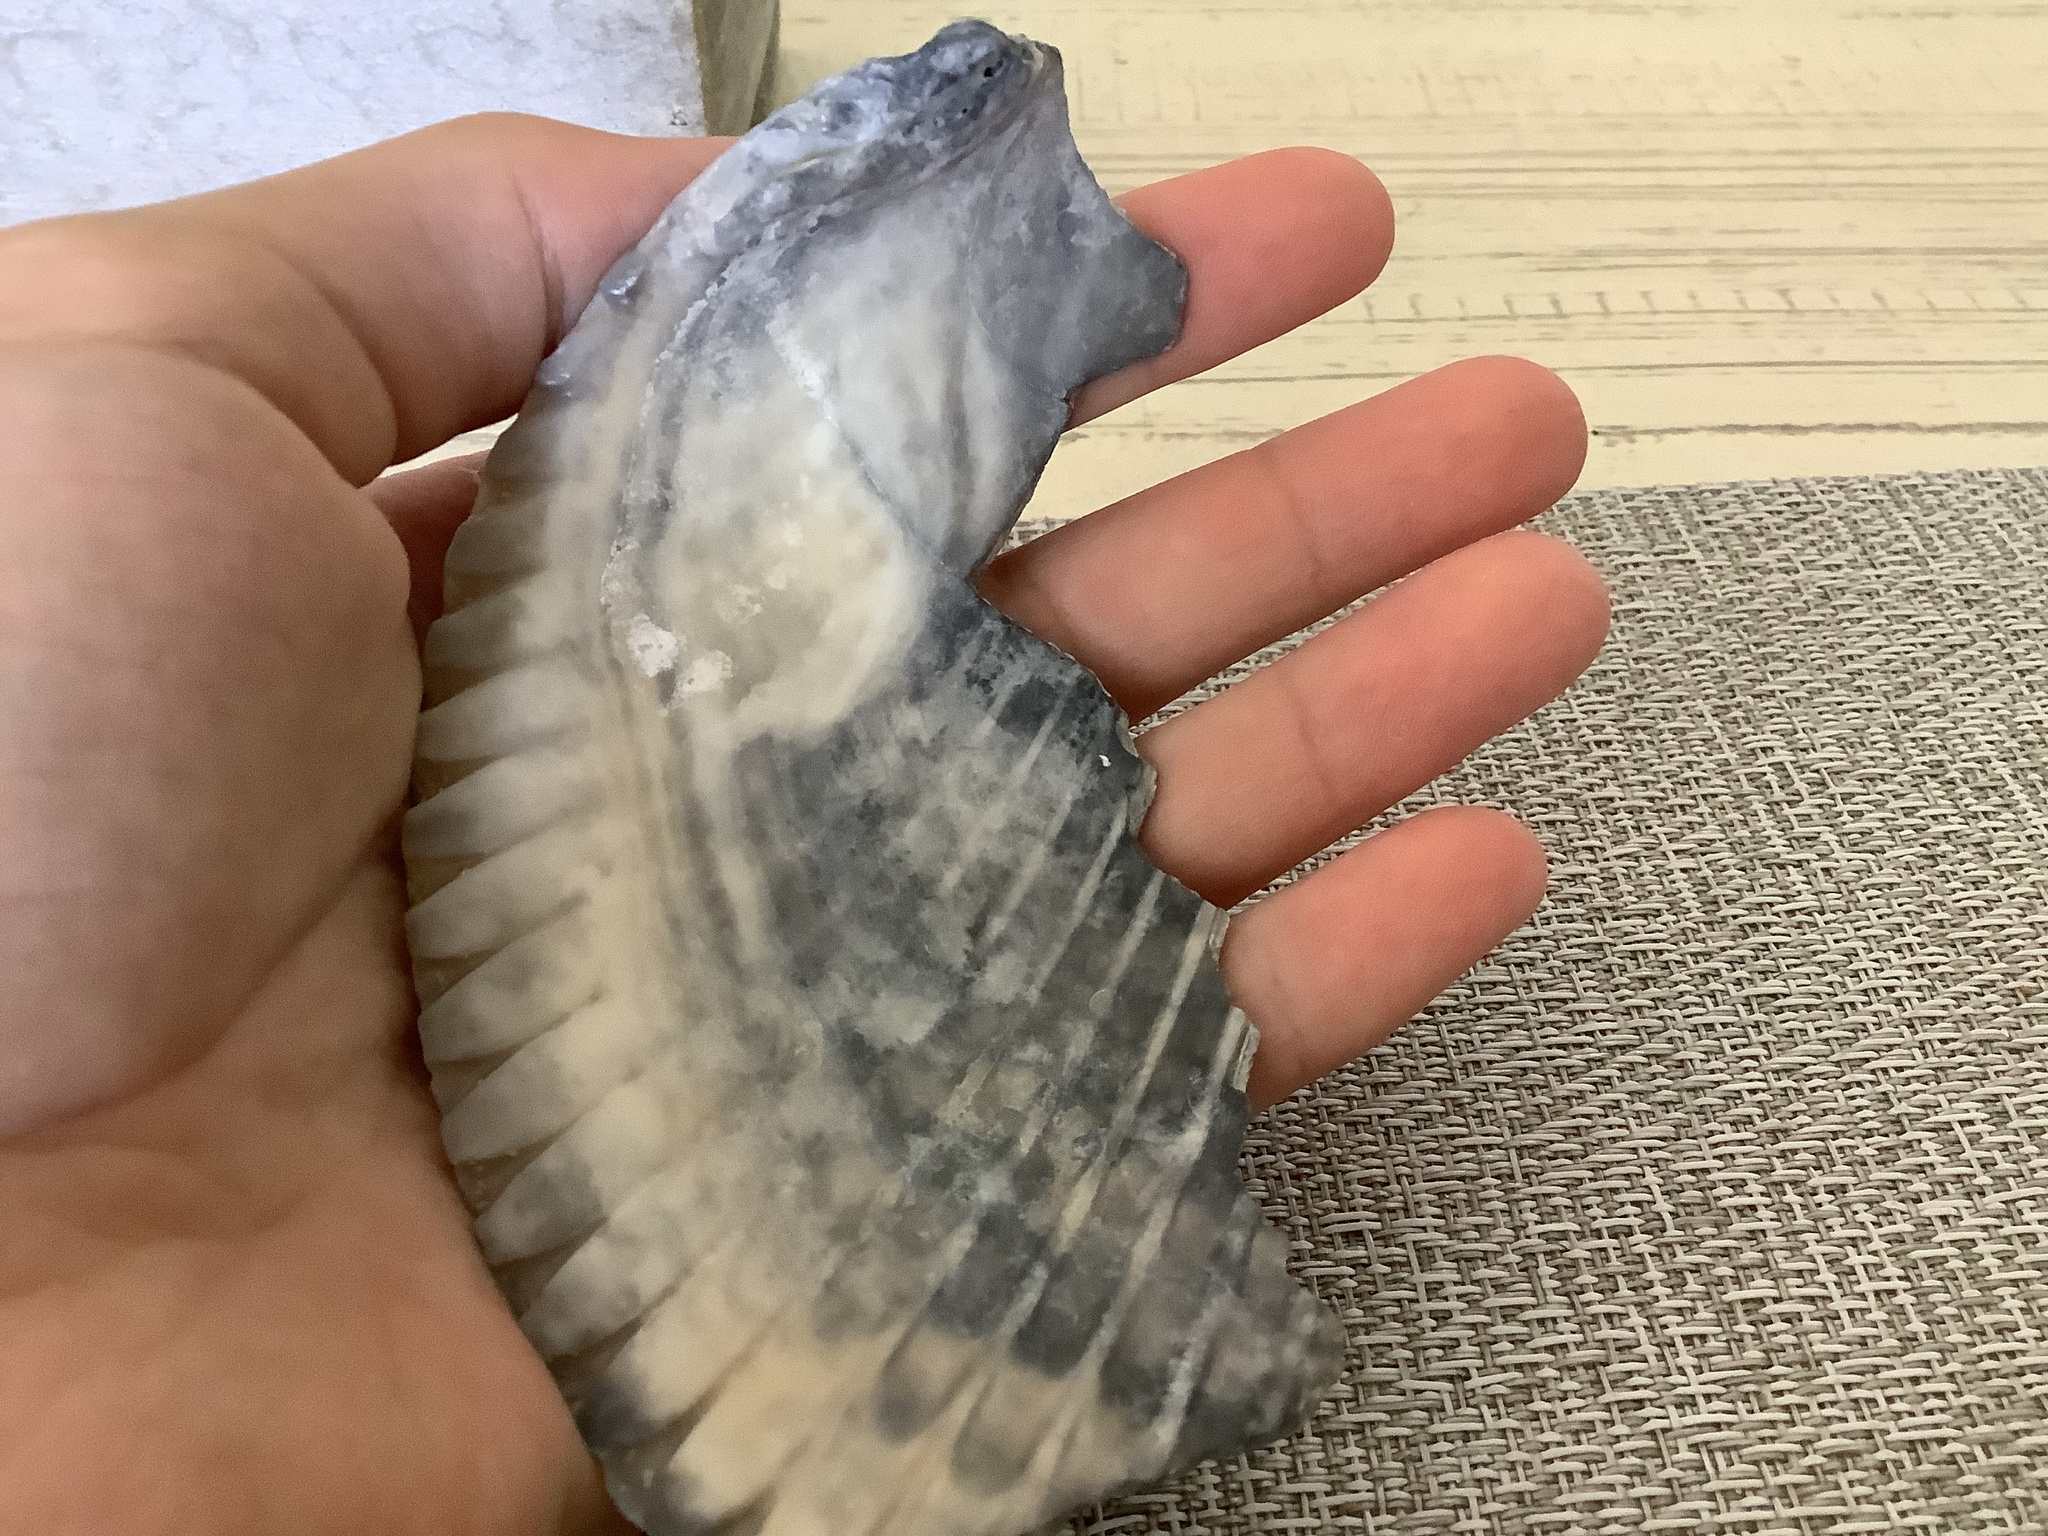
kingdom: Animalia
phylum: Mollusca
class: Bivalvia
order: Cardiida
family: Cardiidae
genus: Dinocardium
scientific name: Dinocardium robustum
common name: Atlantic giant cockle
